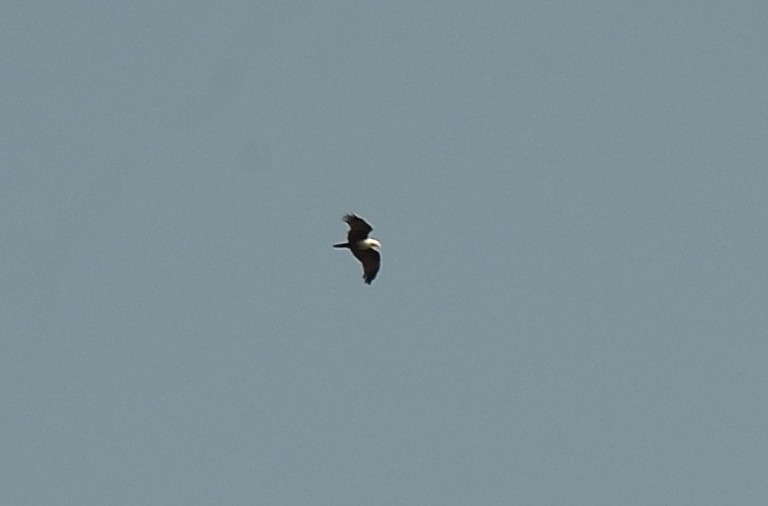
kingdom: Animalia
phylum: Chordata
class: Aves
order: Accipitriformes
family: Accipitridae
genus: Haliastur
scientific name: Haliastur indus
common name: Brahminy kite
